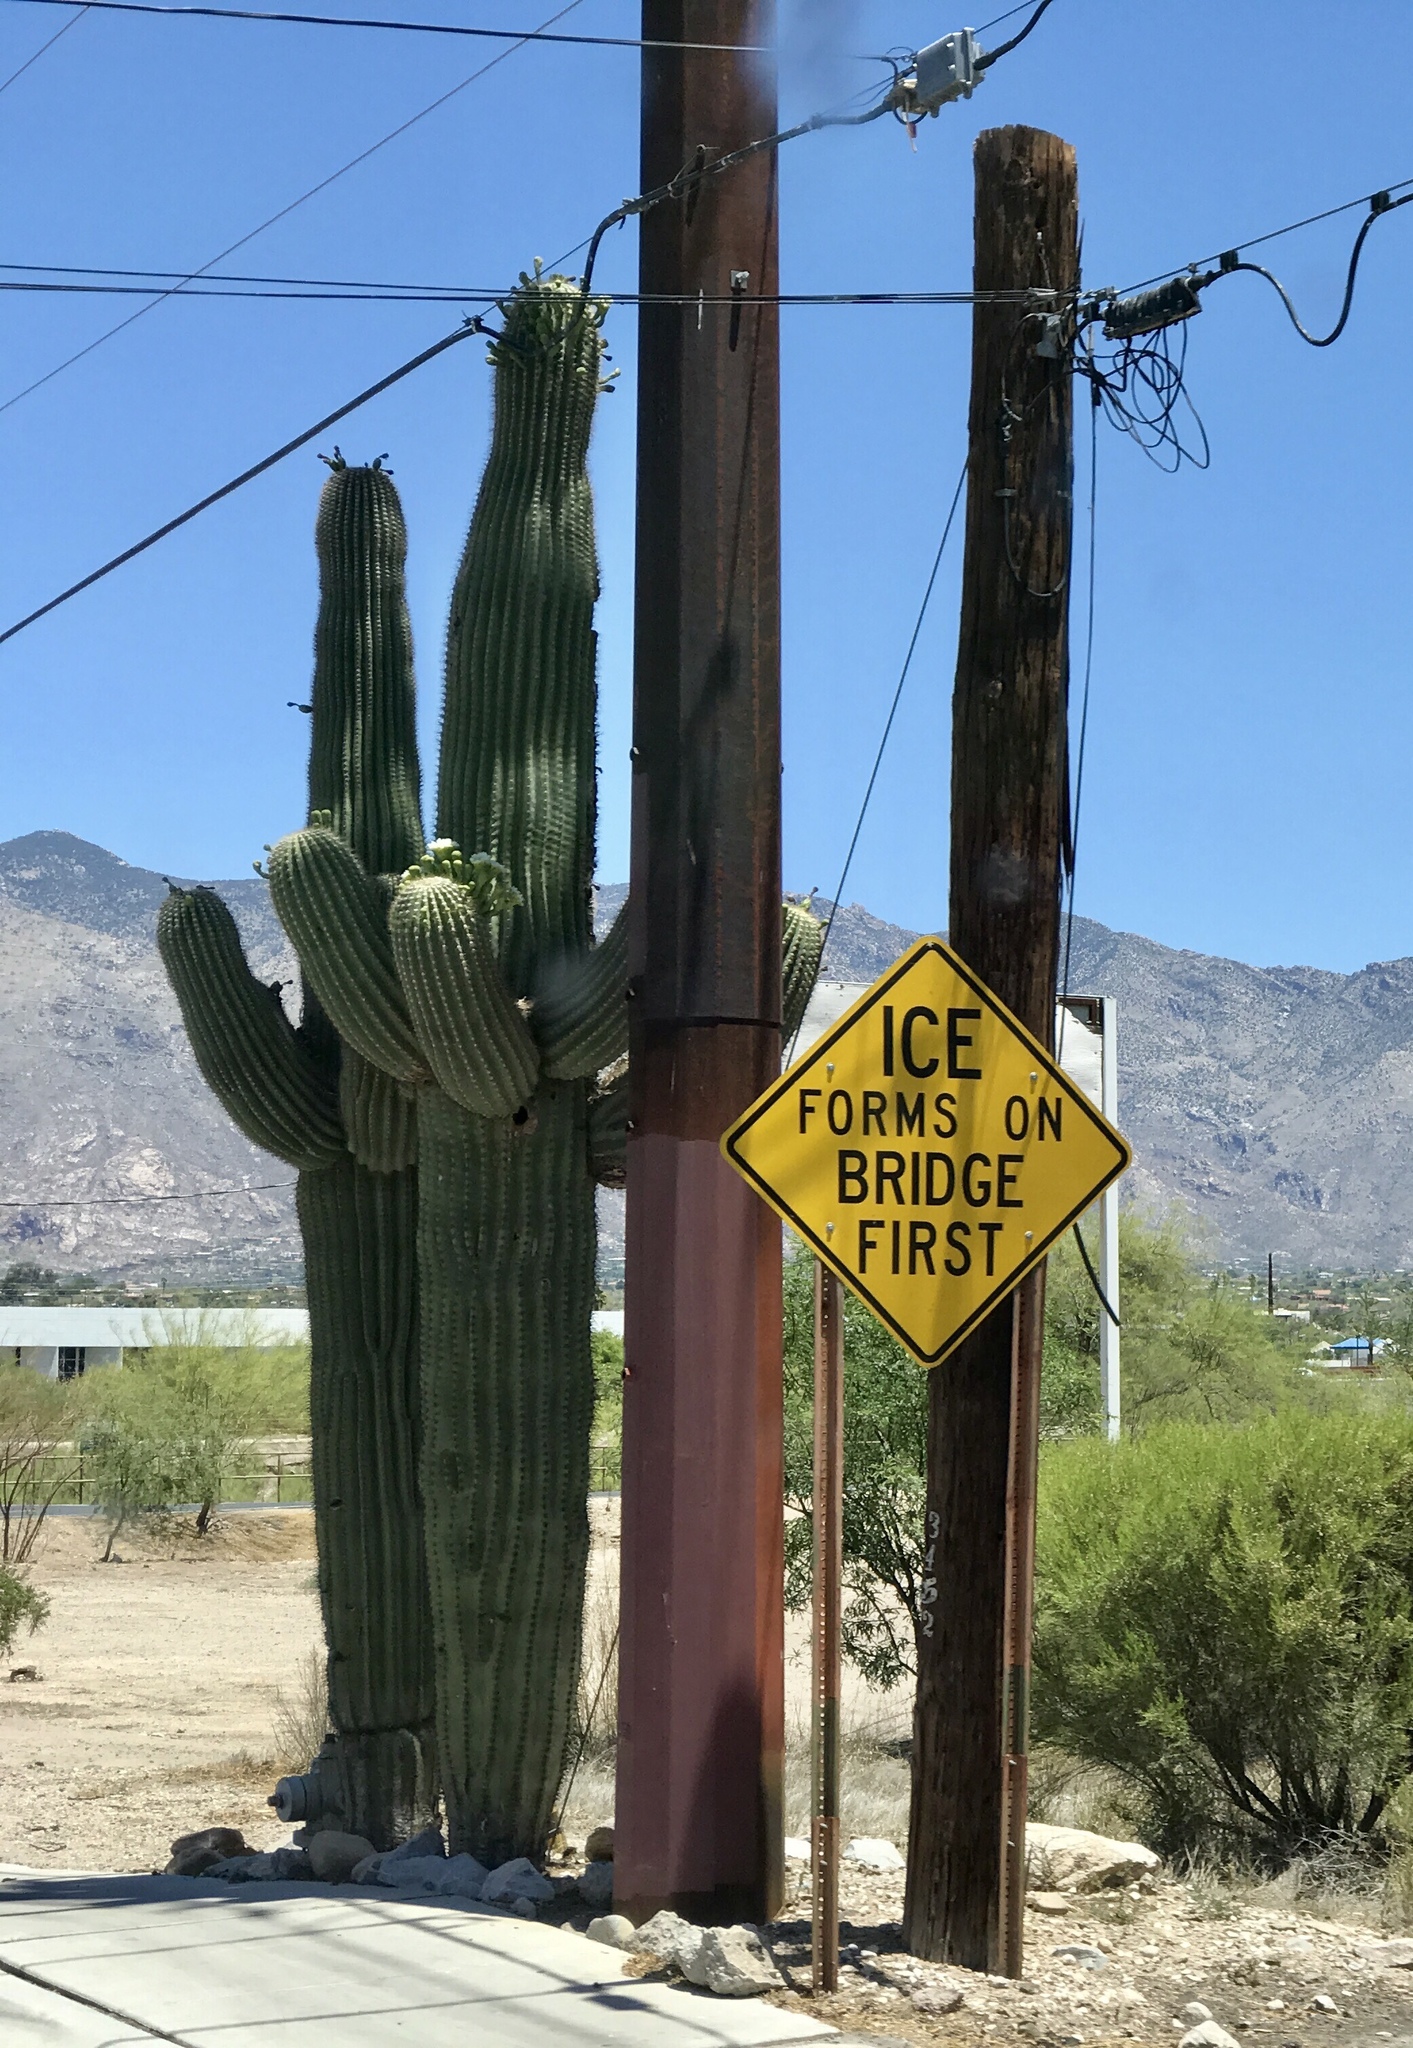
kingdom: Plantae
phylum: Tracheophyta
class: Magnoliopsida
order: Caryophyllales
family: Cactaceae
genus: Carnegiea
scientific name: Carnegiea gigantea
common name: Saguaro
